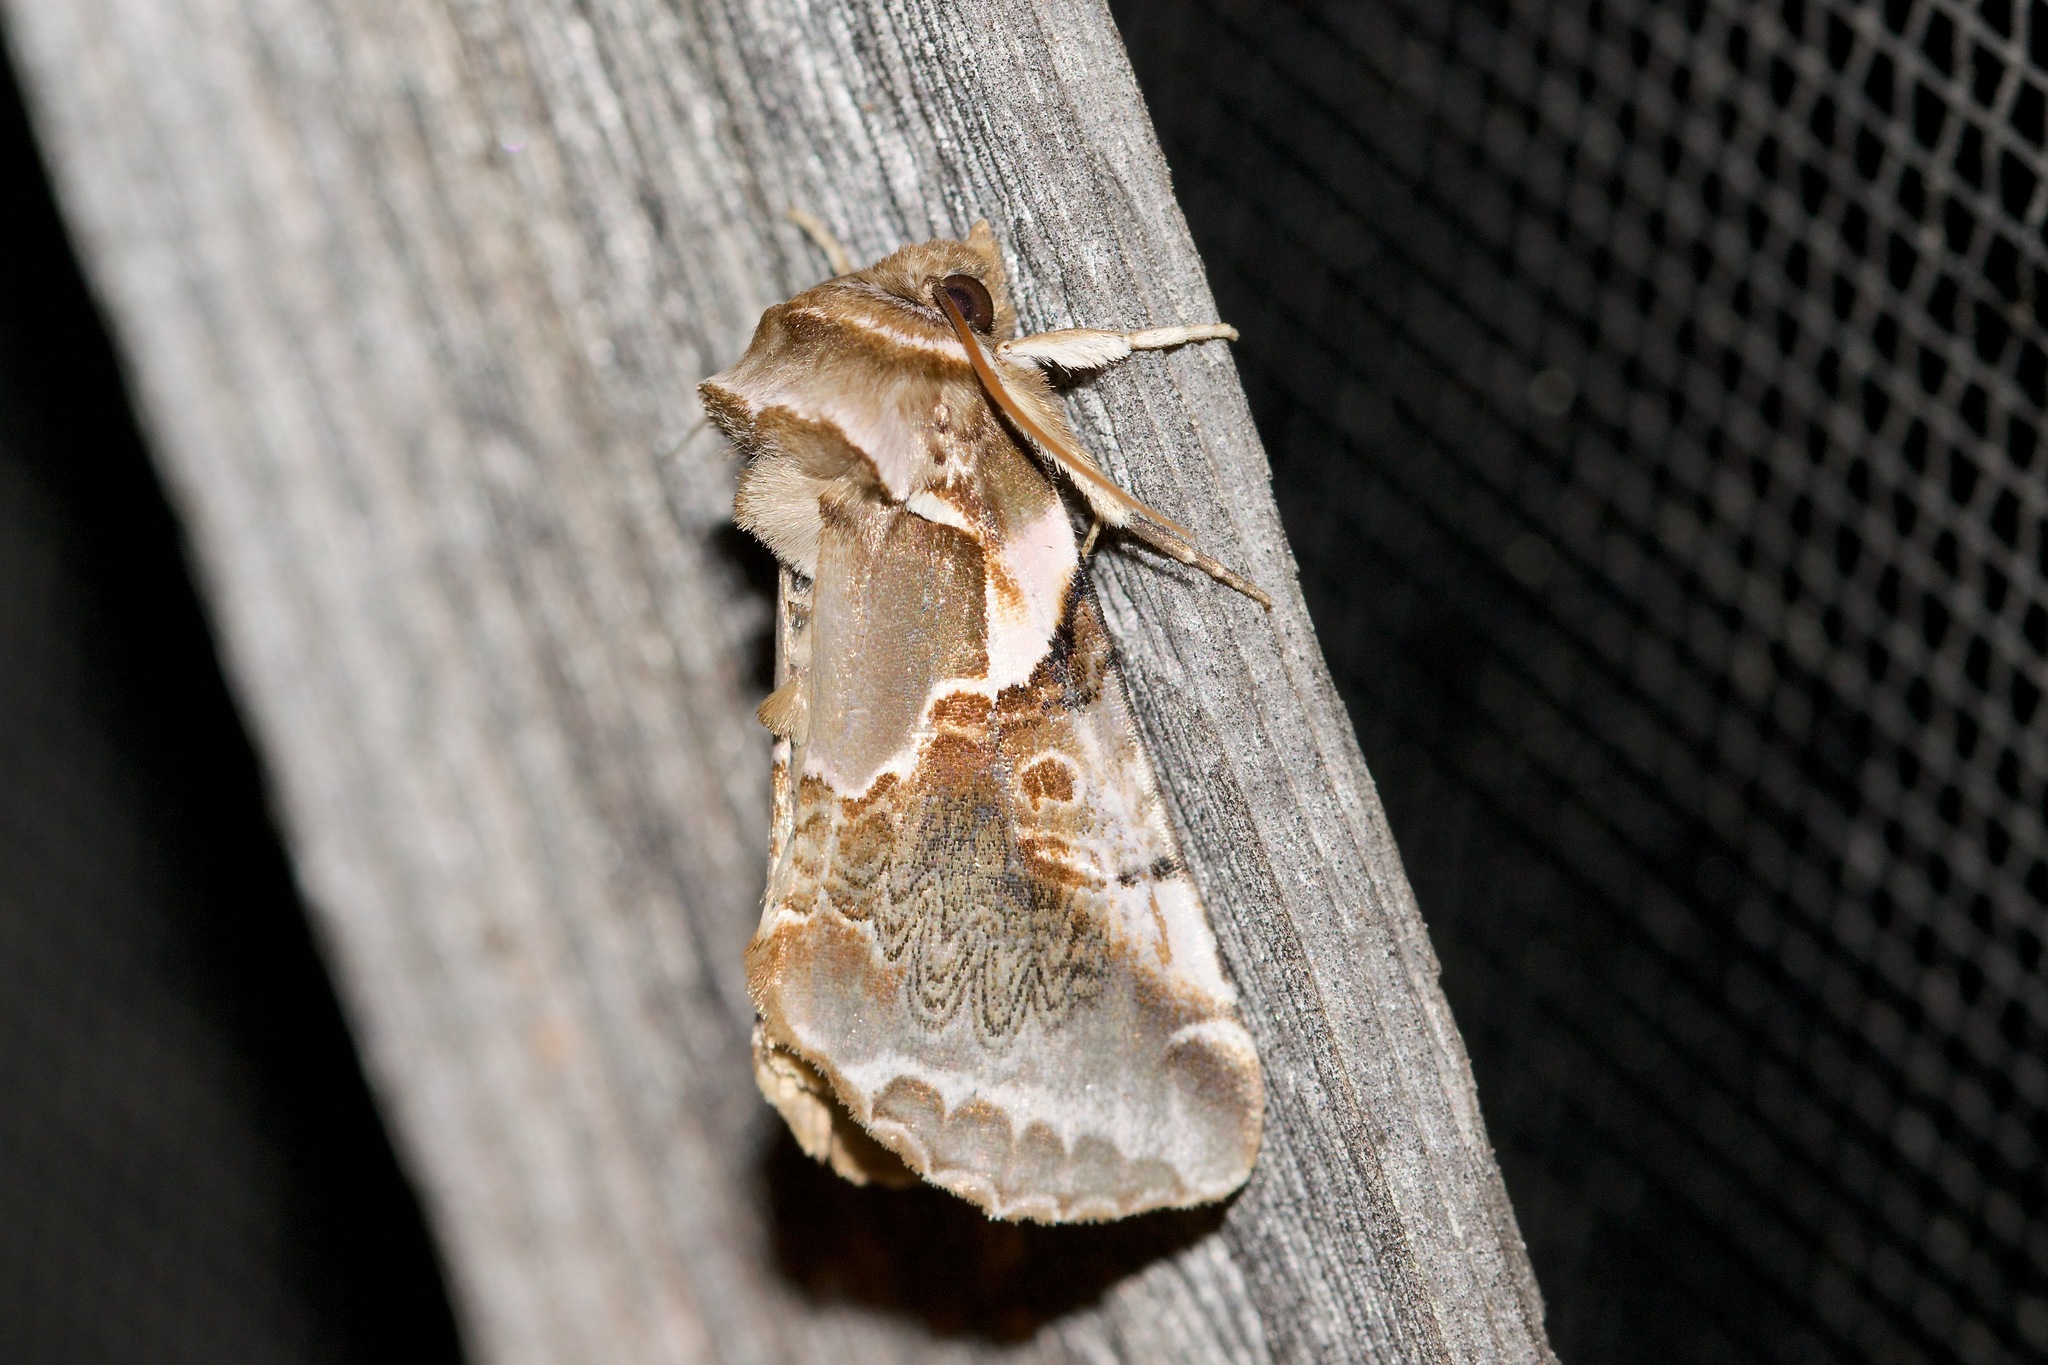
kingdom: Animalia
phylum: Arthropoda
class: Insecta
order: Lepidoptera
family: Drepanidae
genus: Habrosyne
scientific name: Habrosyne gloriosa
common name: Glorious habrosyne moth
